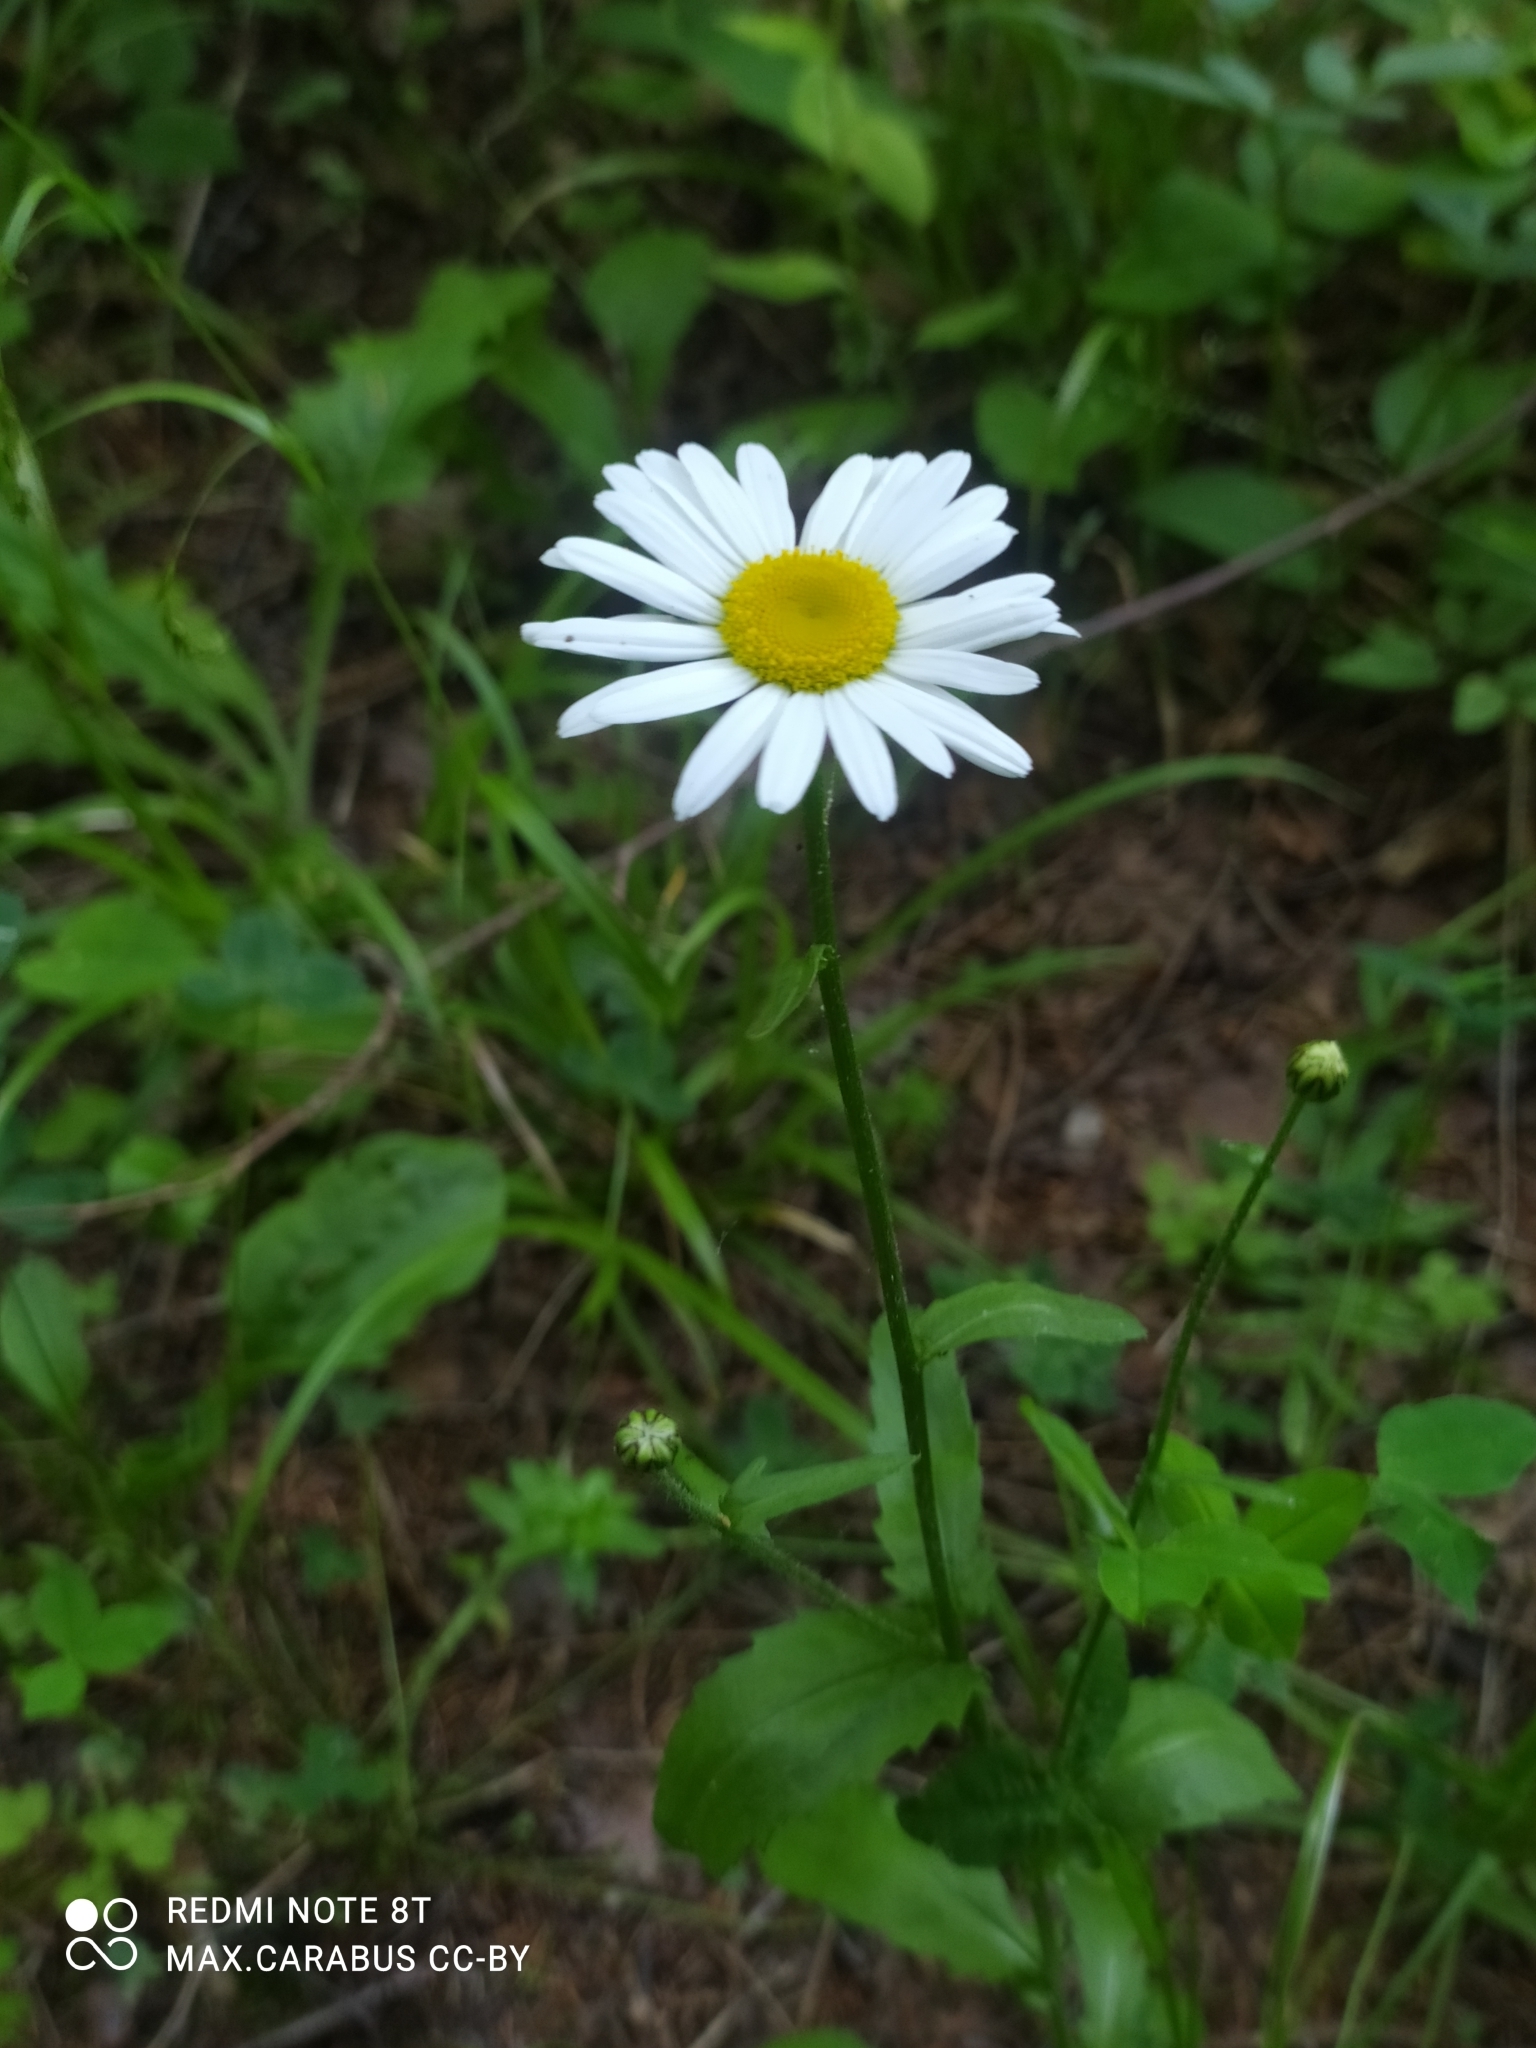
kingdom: Plantae
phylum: Tracheophyta
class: Magnoliopsida
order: Asterales
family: Asteraceae
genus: Leucanthemum
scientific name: Leucanthemum vulgare
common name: Oxeye daisy
